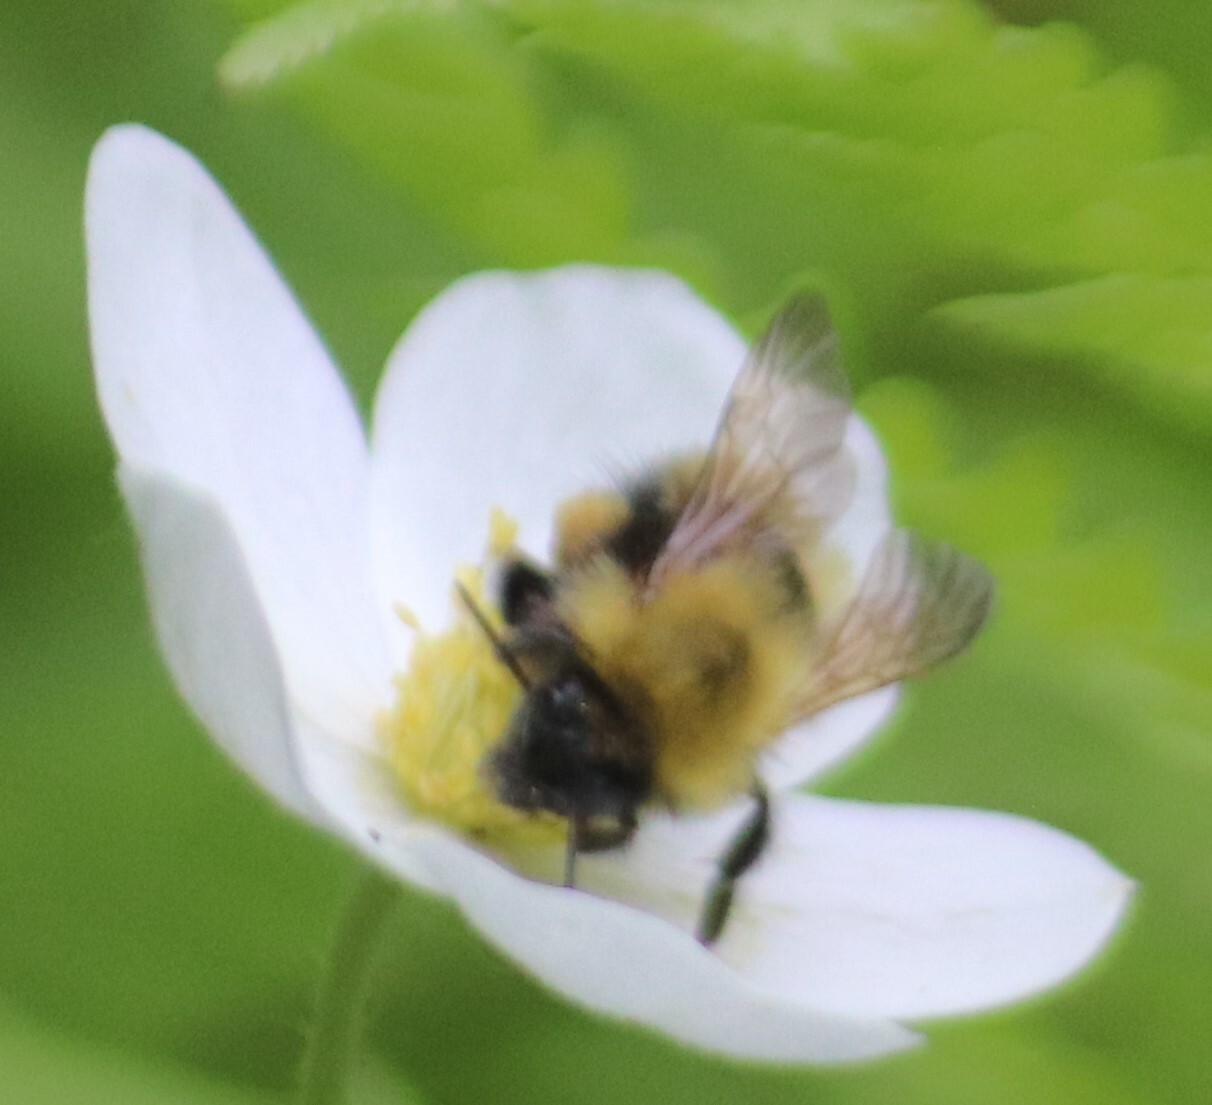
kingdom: Animalia
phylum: Arthropoda
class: Insecta
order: Hymenoptera
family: Apidae
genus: Bombus
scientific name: Bombus perplexus
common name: Confusing bumble bee
